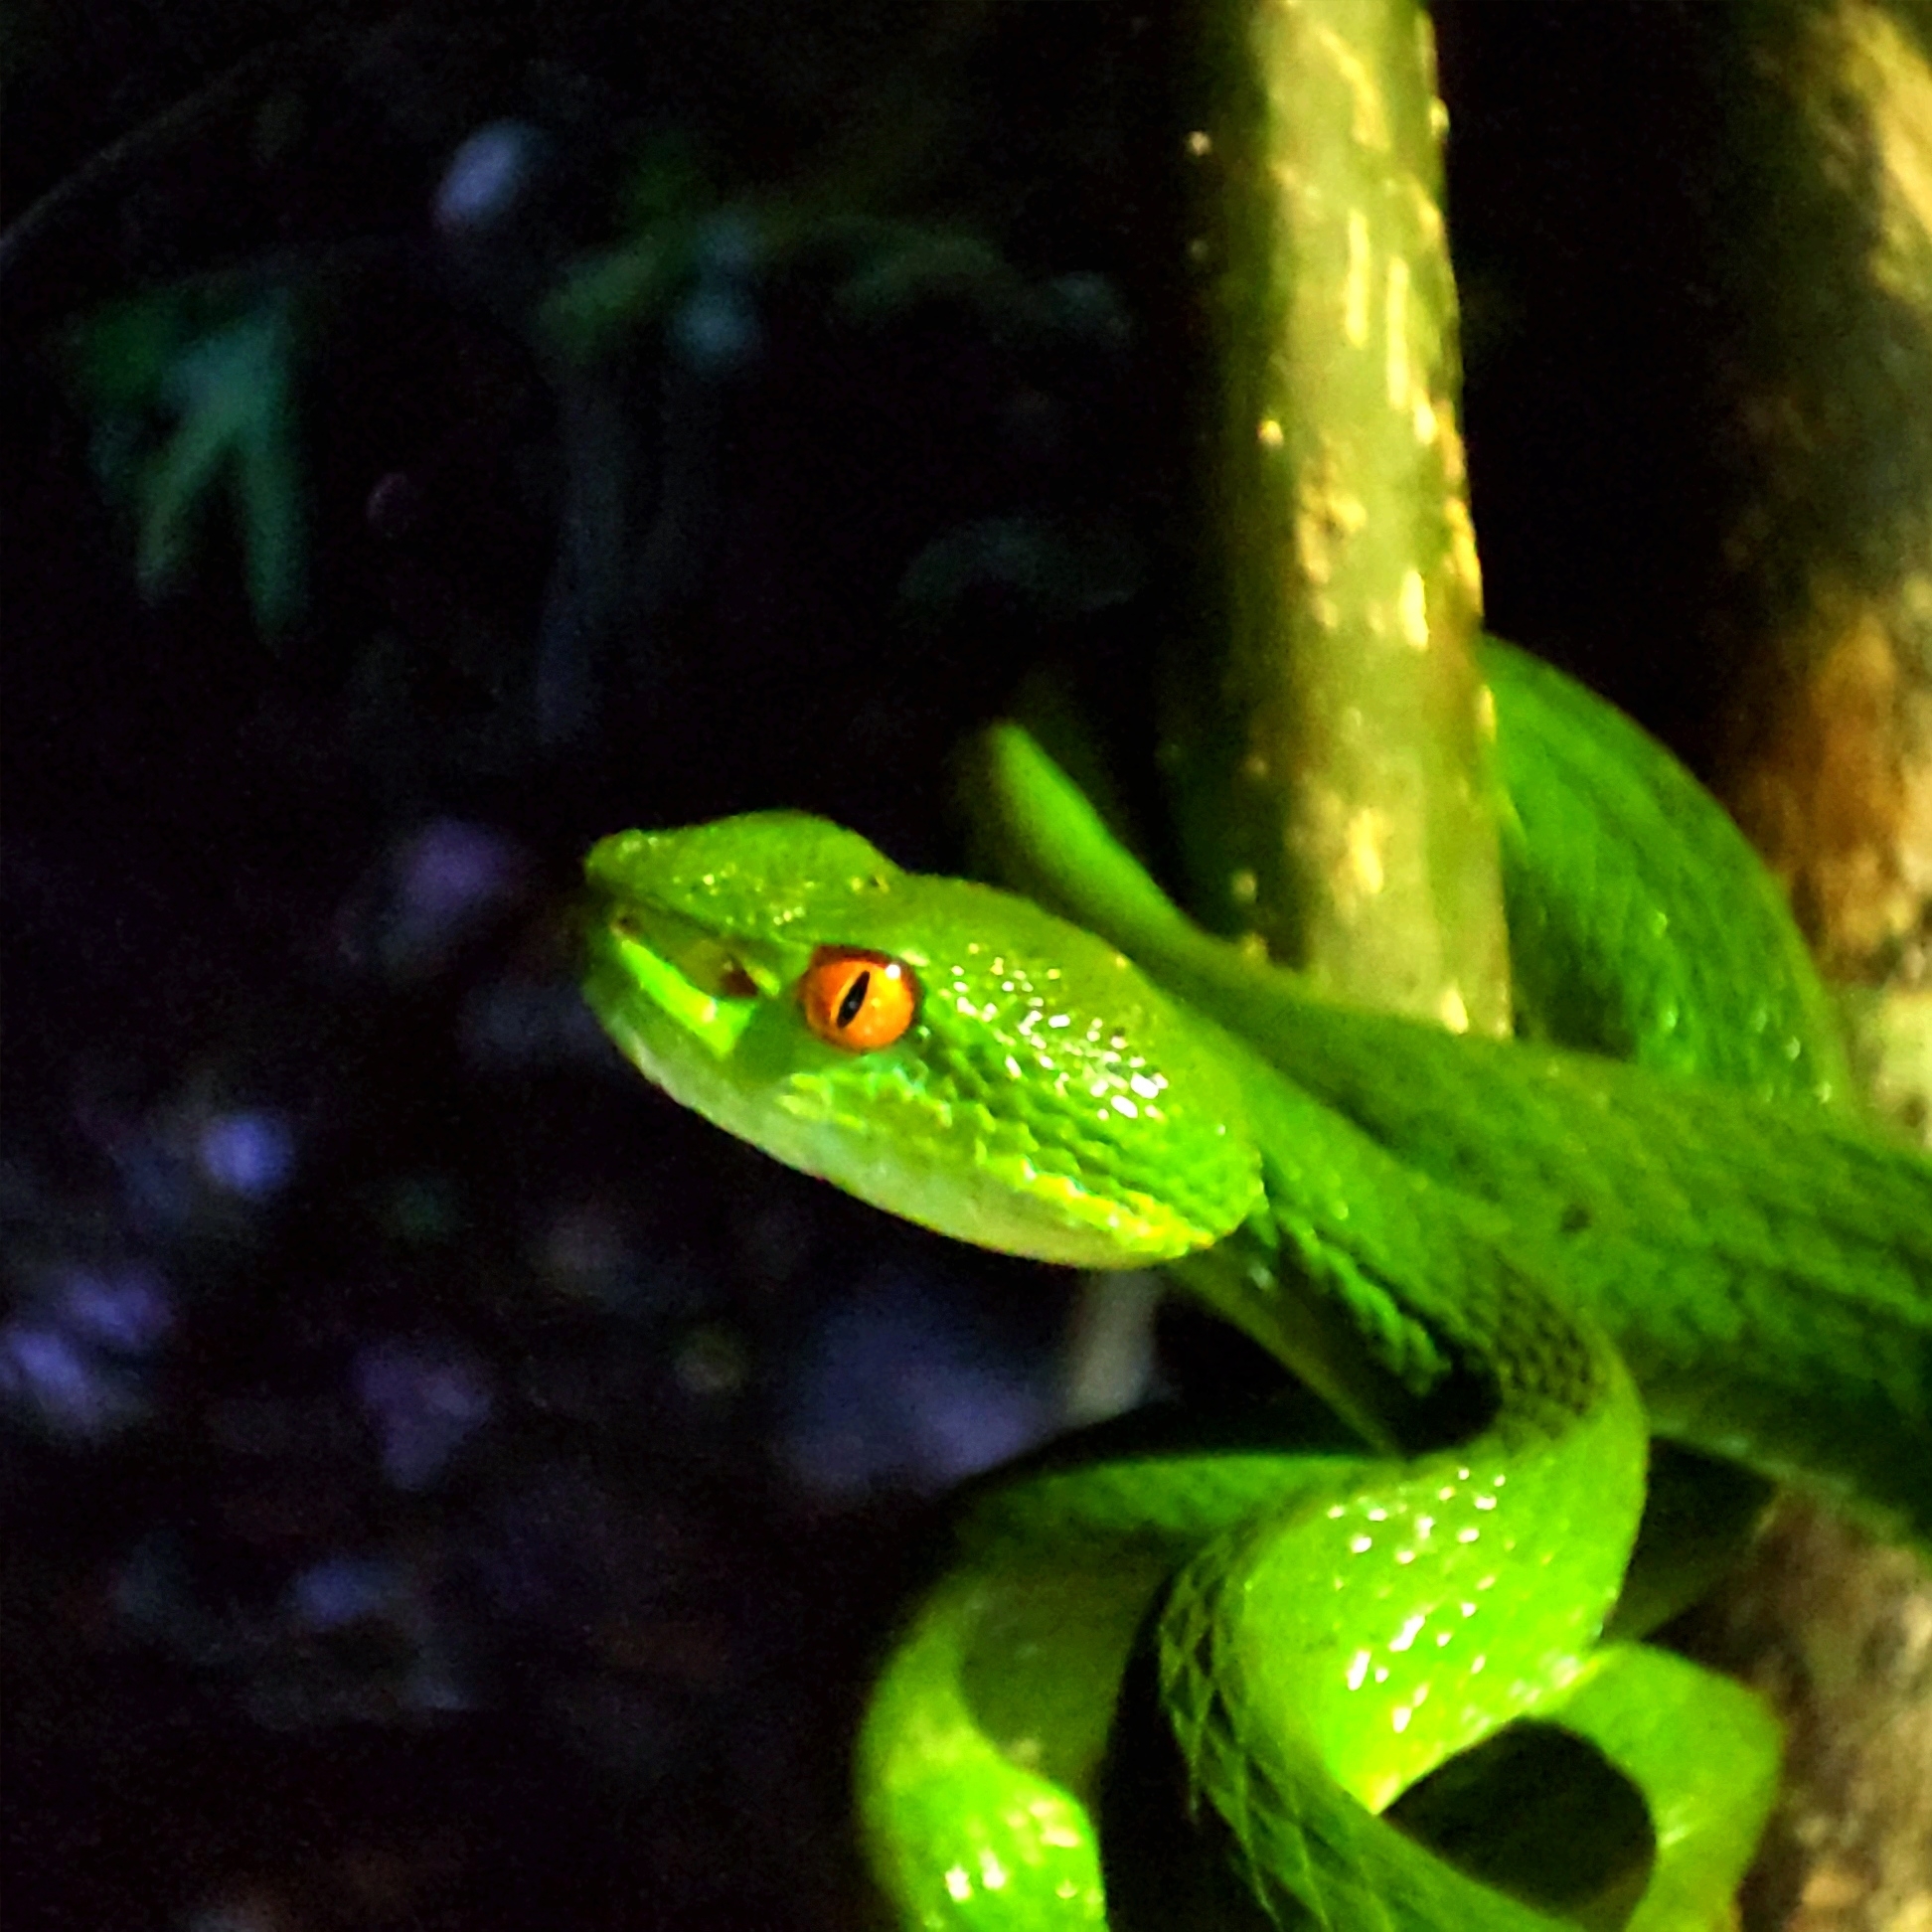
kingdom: Animalia
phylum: Chordata
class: Squamata
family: Viperidae
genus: Craspedocephalus
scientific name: Craspedocephalus rubeus
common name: Ruby-eyed green pitviper
